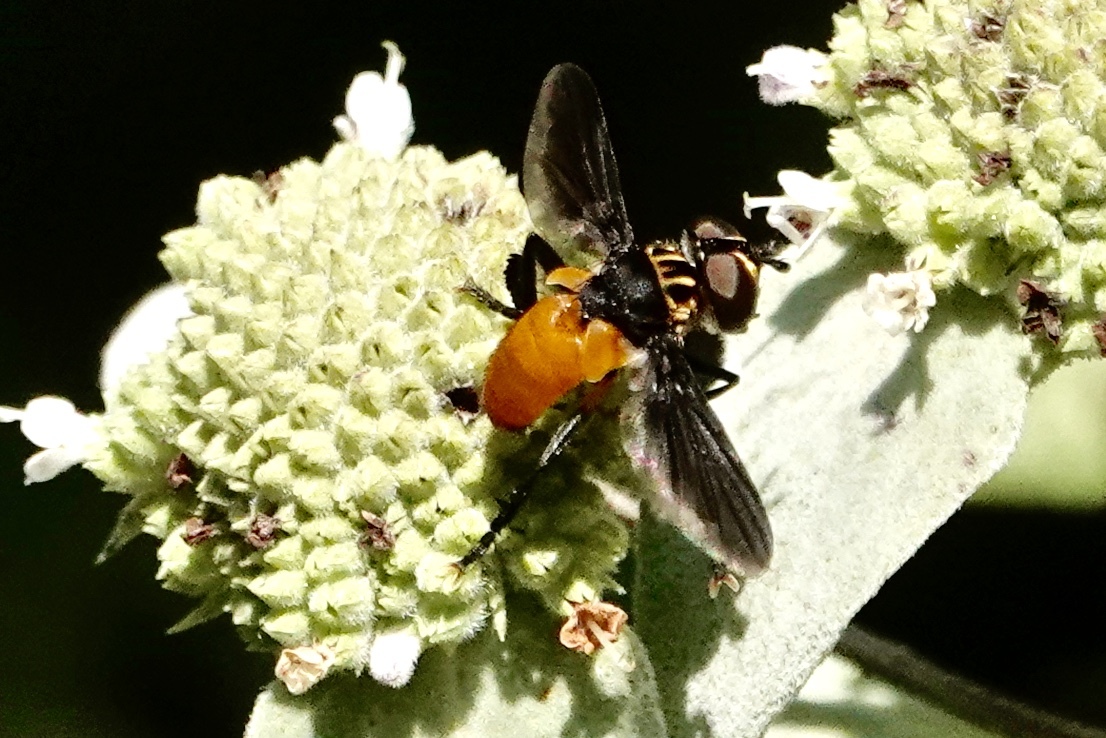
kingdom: Animalia
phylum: Arthropoda
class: Insecta
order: Diptera
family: Tachinidae
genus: Trichopoda
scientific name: Trichopoda pennipes
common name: Tachinid fly
